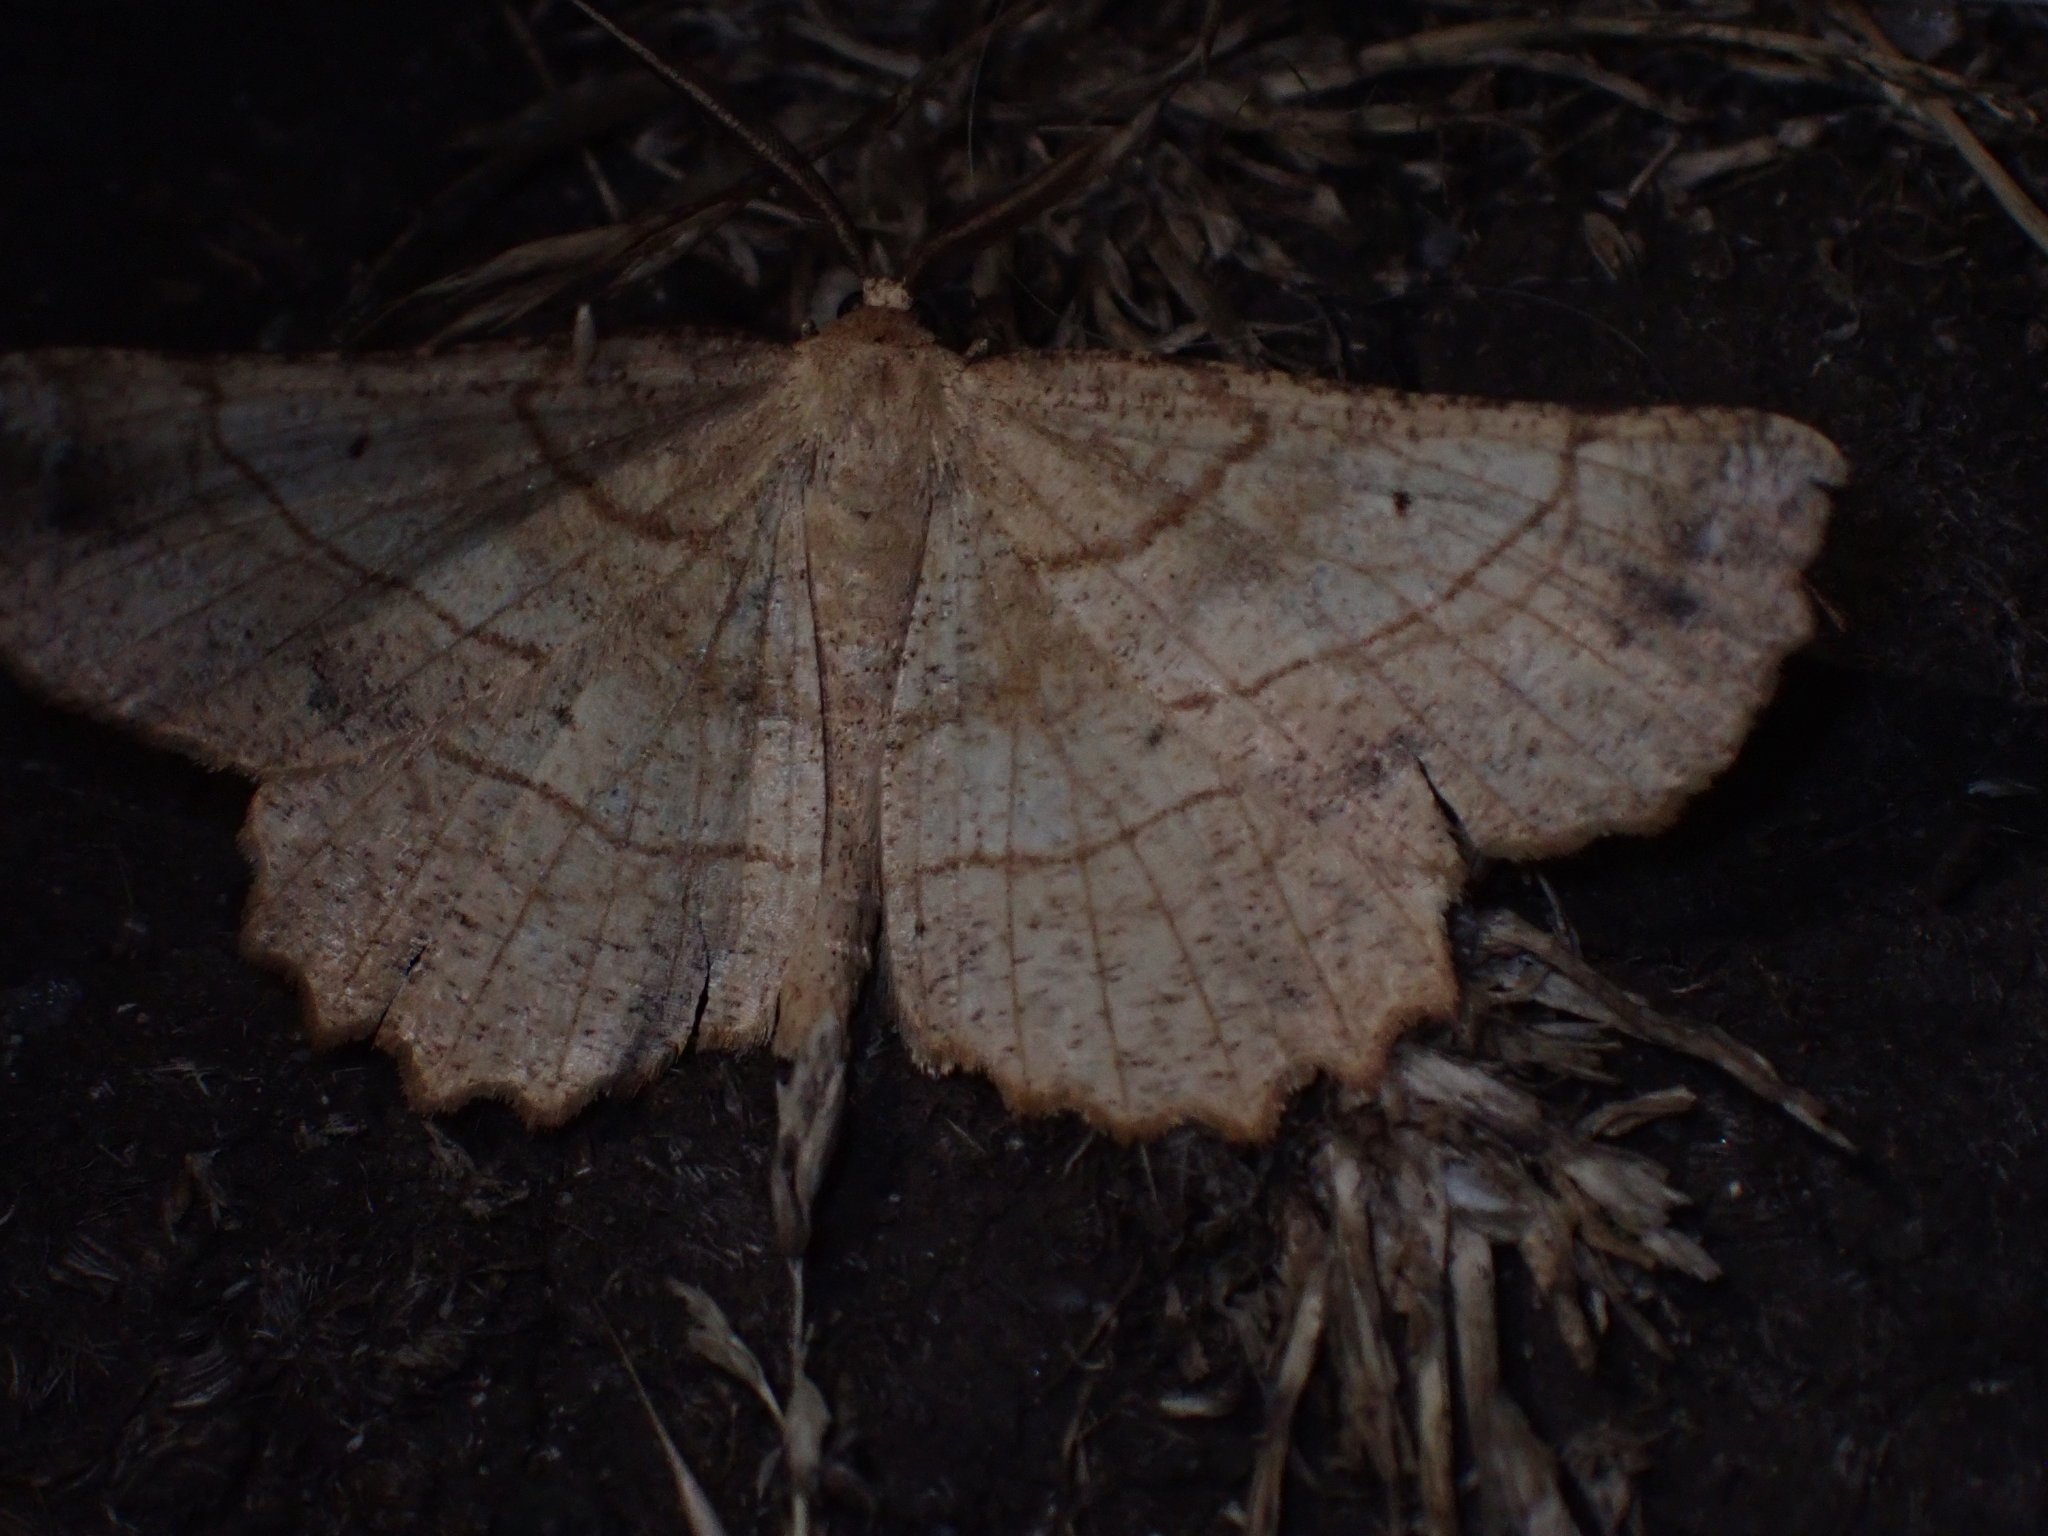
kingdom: Animalia
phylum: Arthropoda
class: Insecta
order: Lepidoptera
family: Geometridae
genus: Euchlaena
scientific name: Euchlaena johnsonaria
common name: Johnson's euchlaena
